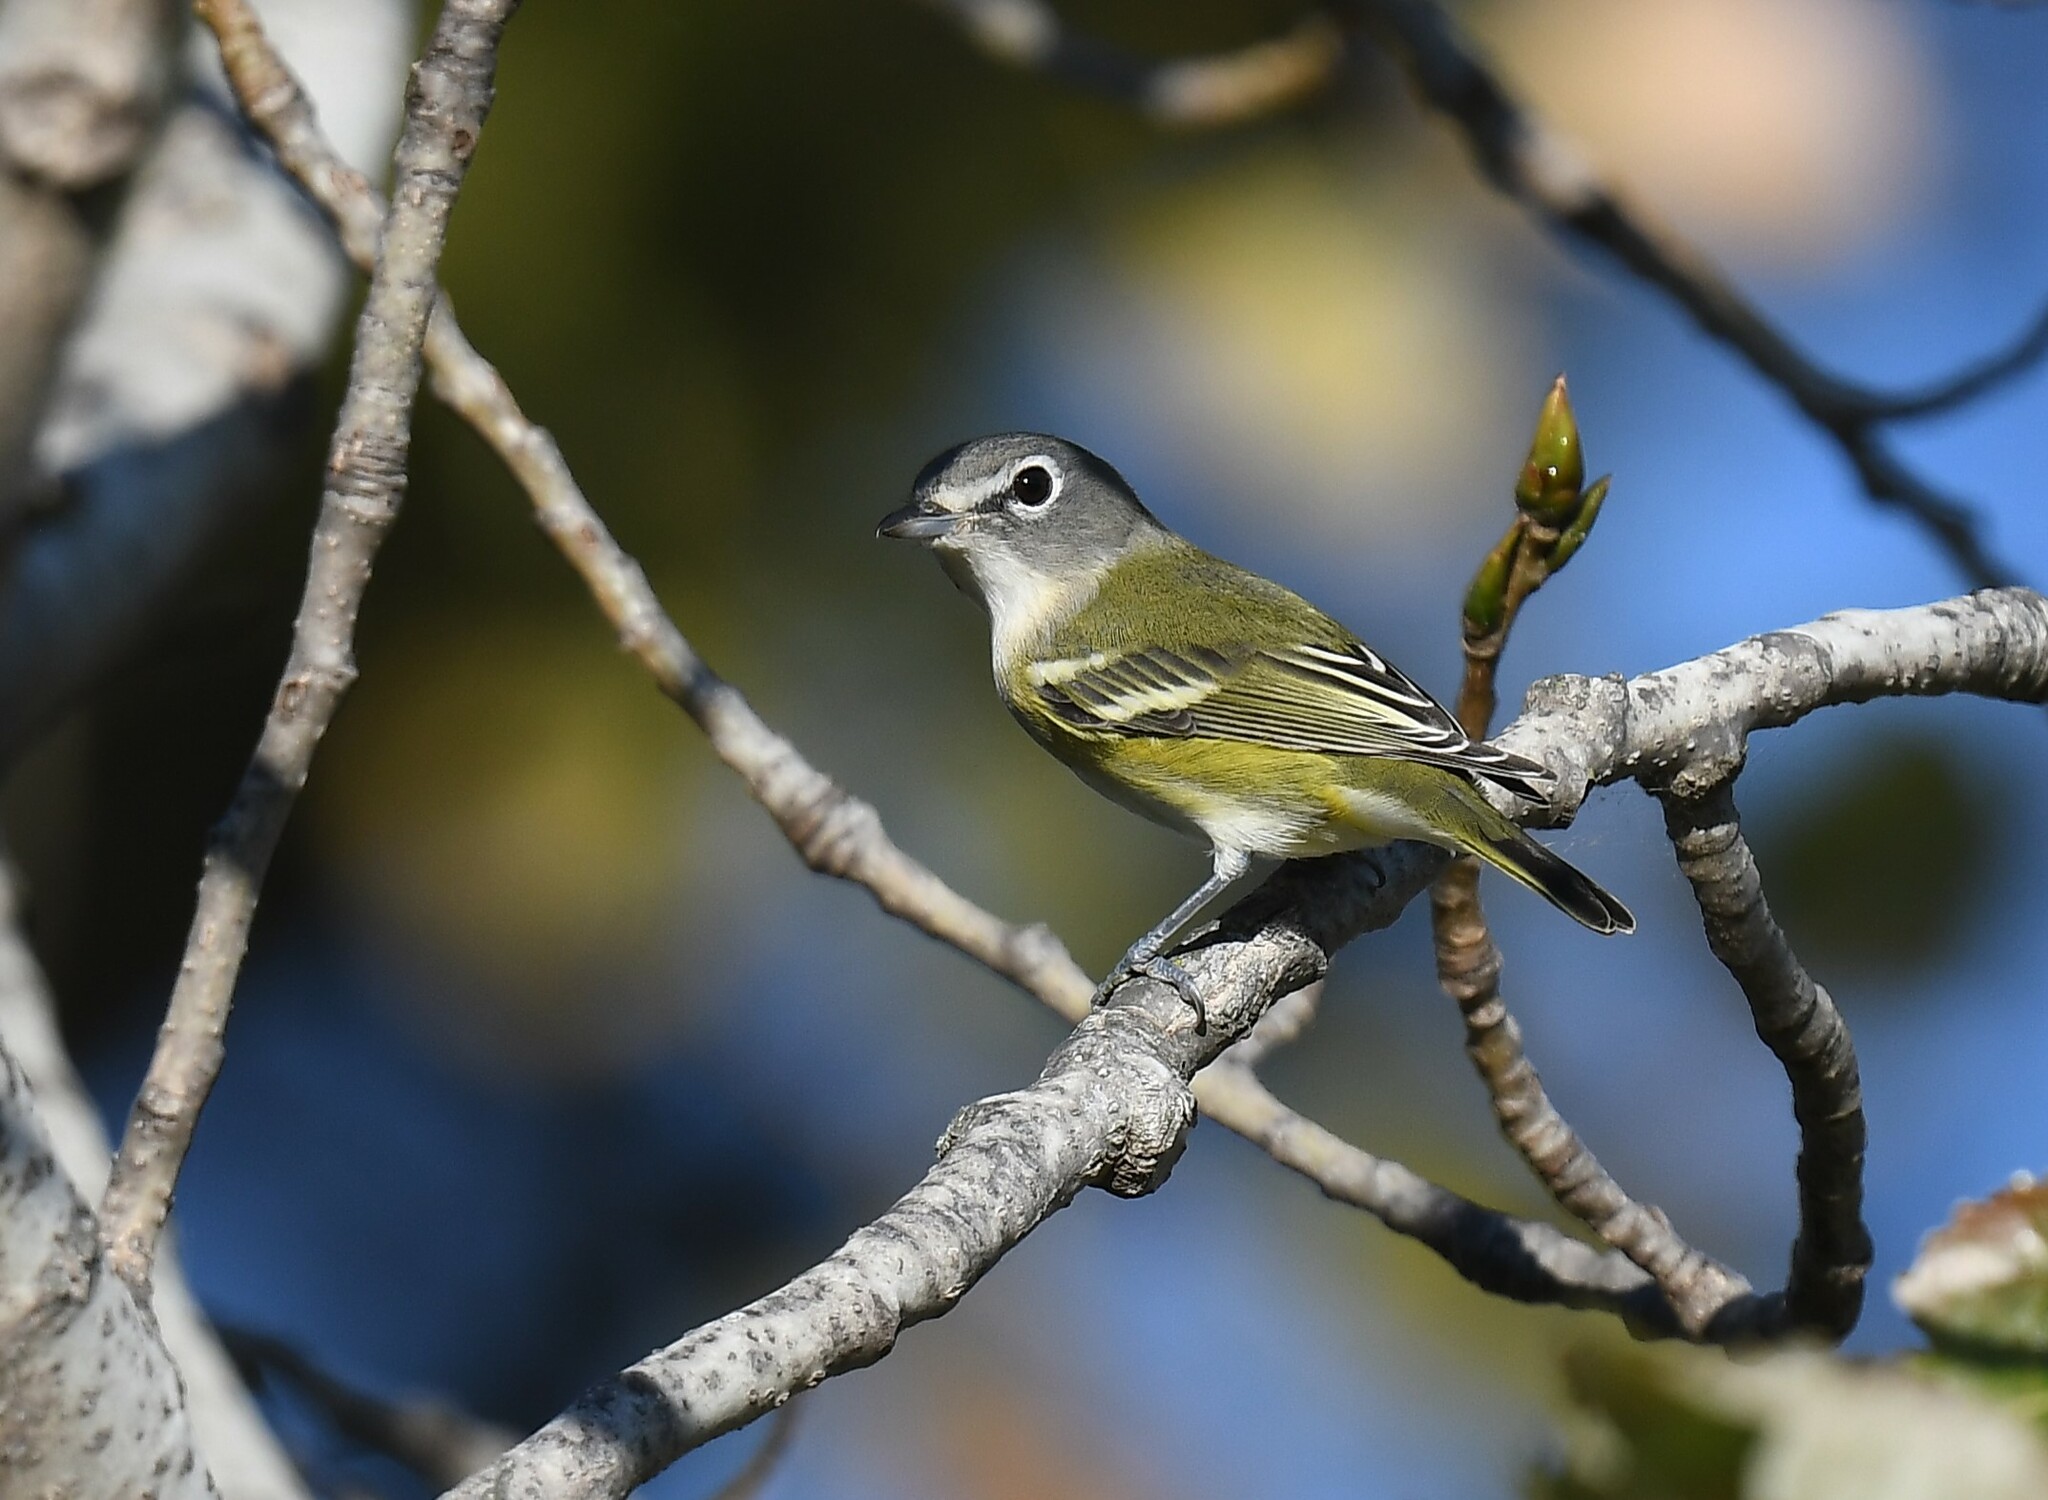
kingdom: Animalia
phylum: Chordata
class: Aves
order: Passeriformes
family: Vireonidae
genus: Vireo
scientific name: Vireo solitarius
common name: Blue-headed vireo
